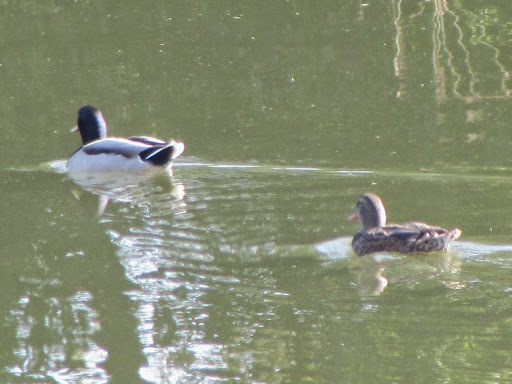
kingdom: Animalia
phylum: Chordata
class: Aves
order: Anseriformes
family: Anatidae
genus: Anas
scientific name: Anas platyrhynchos
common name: Mallard
